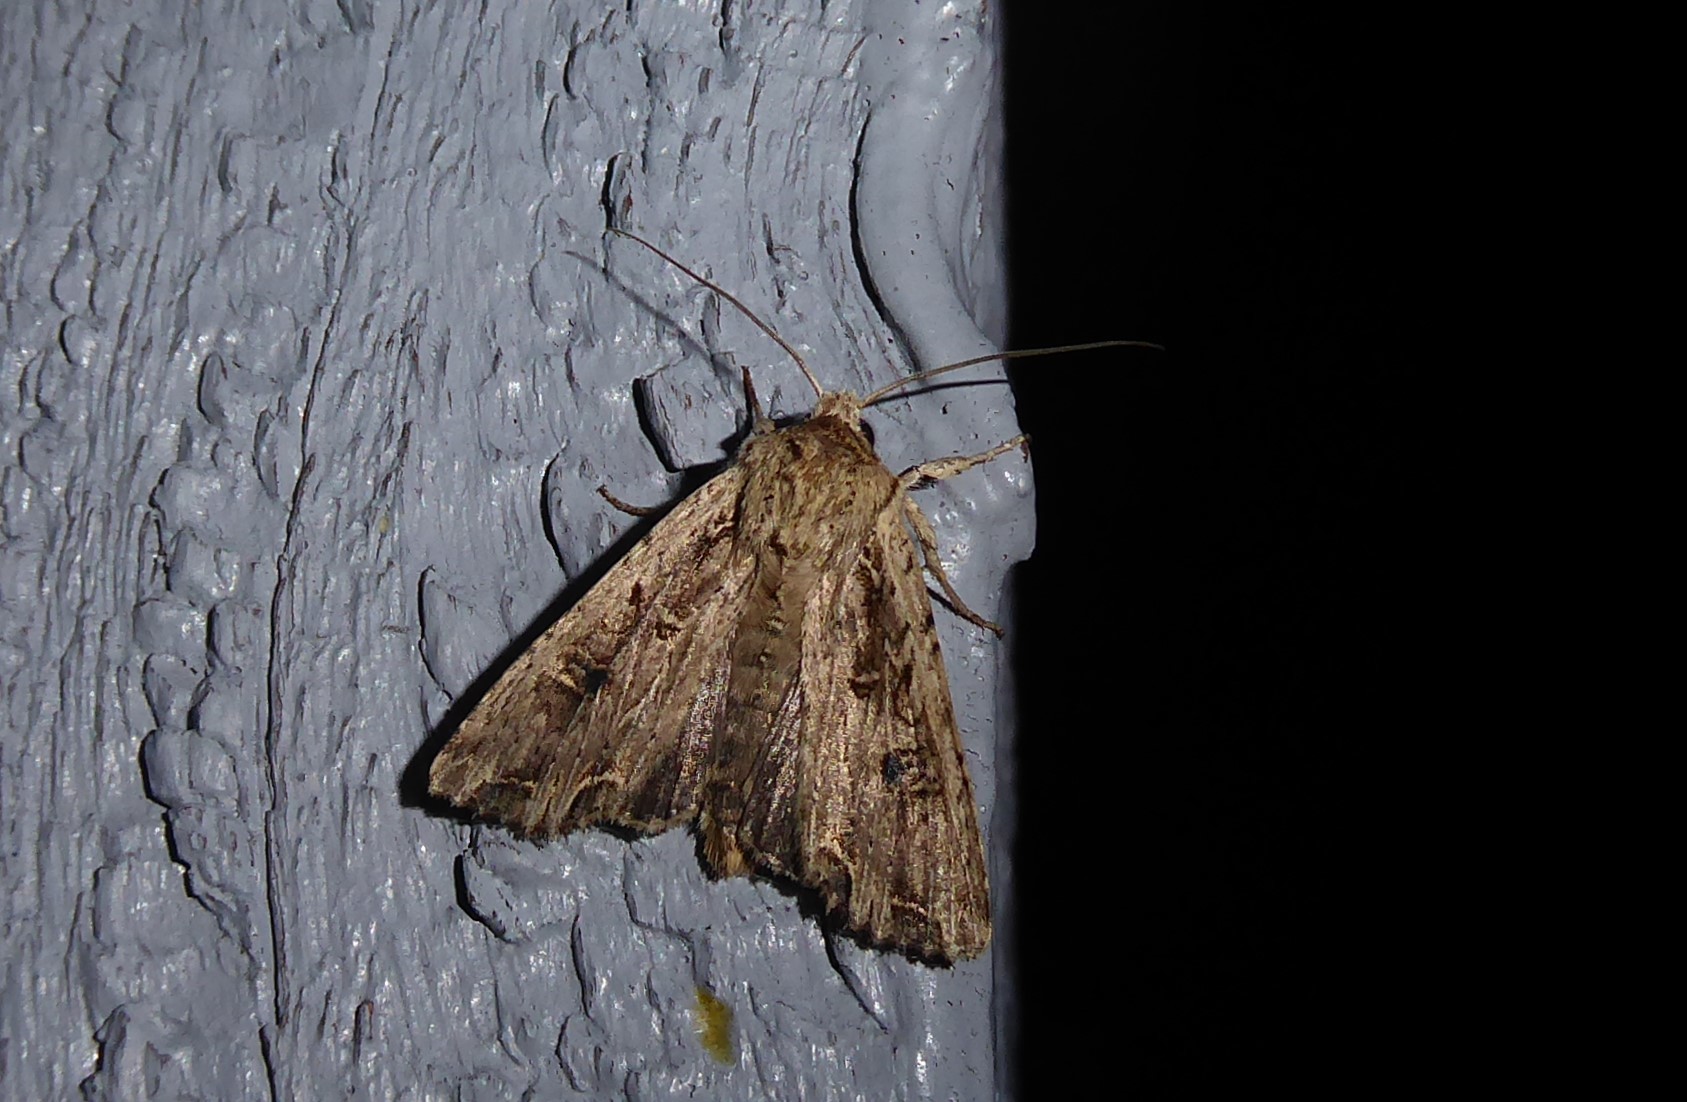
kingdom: Animalia
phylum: Arthropoda
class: Insecta
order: Lepidoptera
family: Noctuidae
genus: Ichneutica
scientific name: Ichneutica lignana
